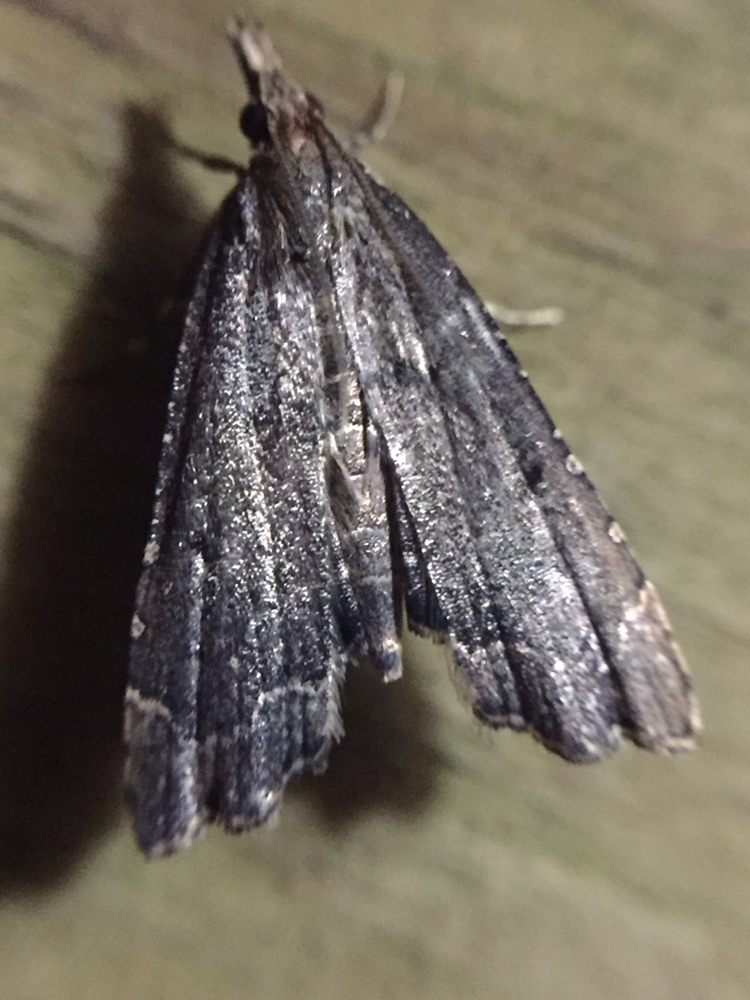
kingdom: Animalia
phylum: Arthropoda
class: Insecta
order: Lepidoptera
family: Crambidae
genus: Diplopseustis
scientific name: Diplopseustis perieresalis
